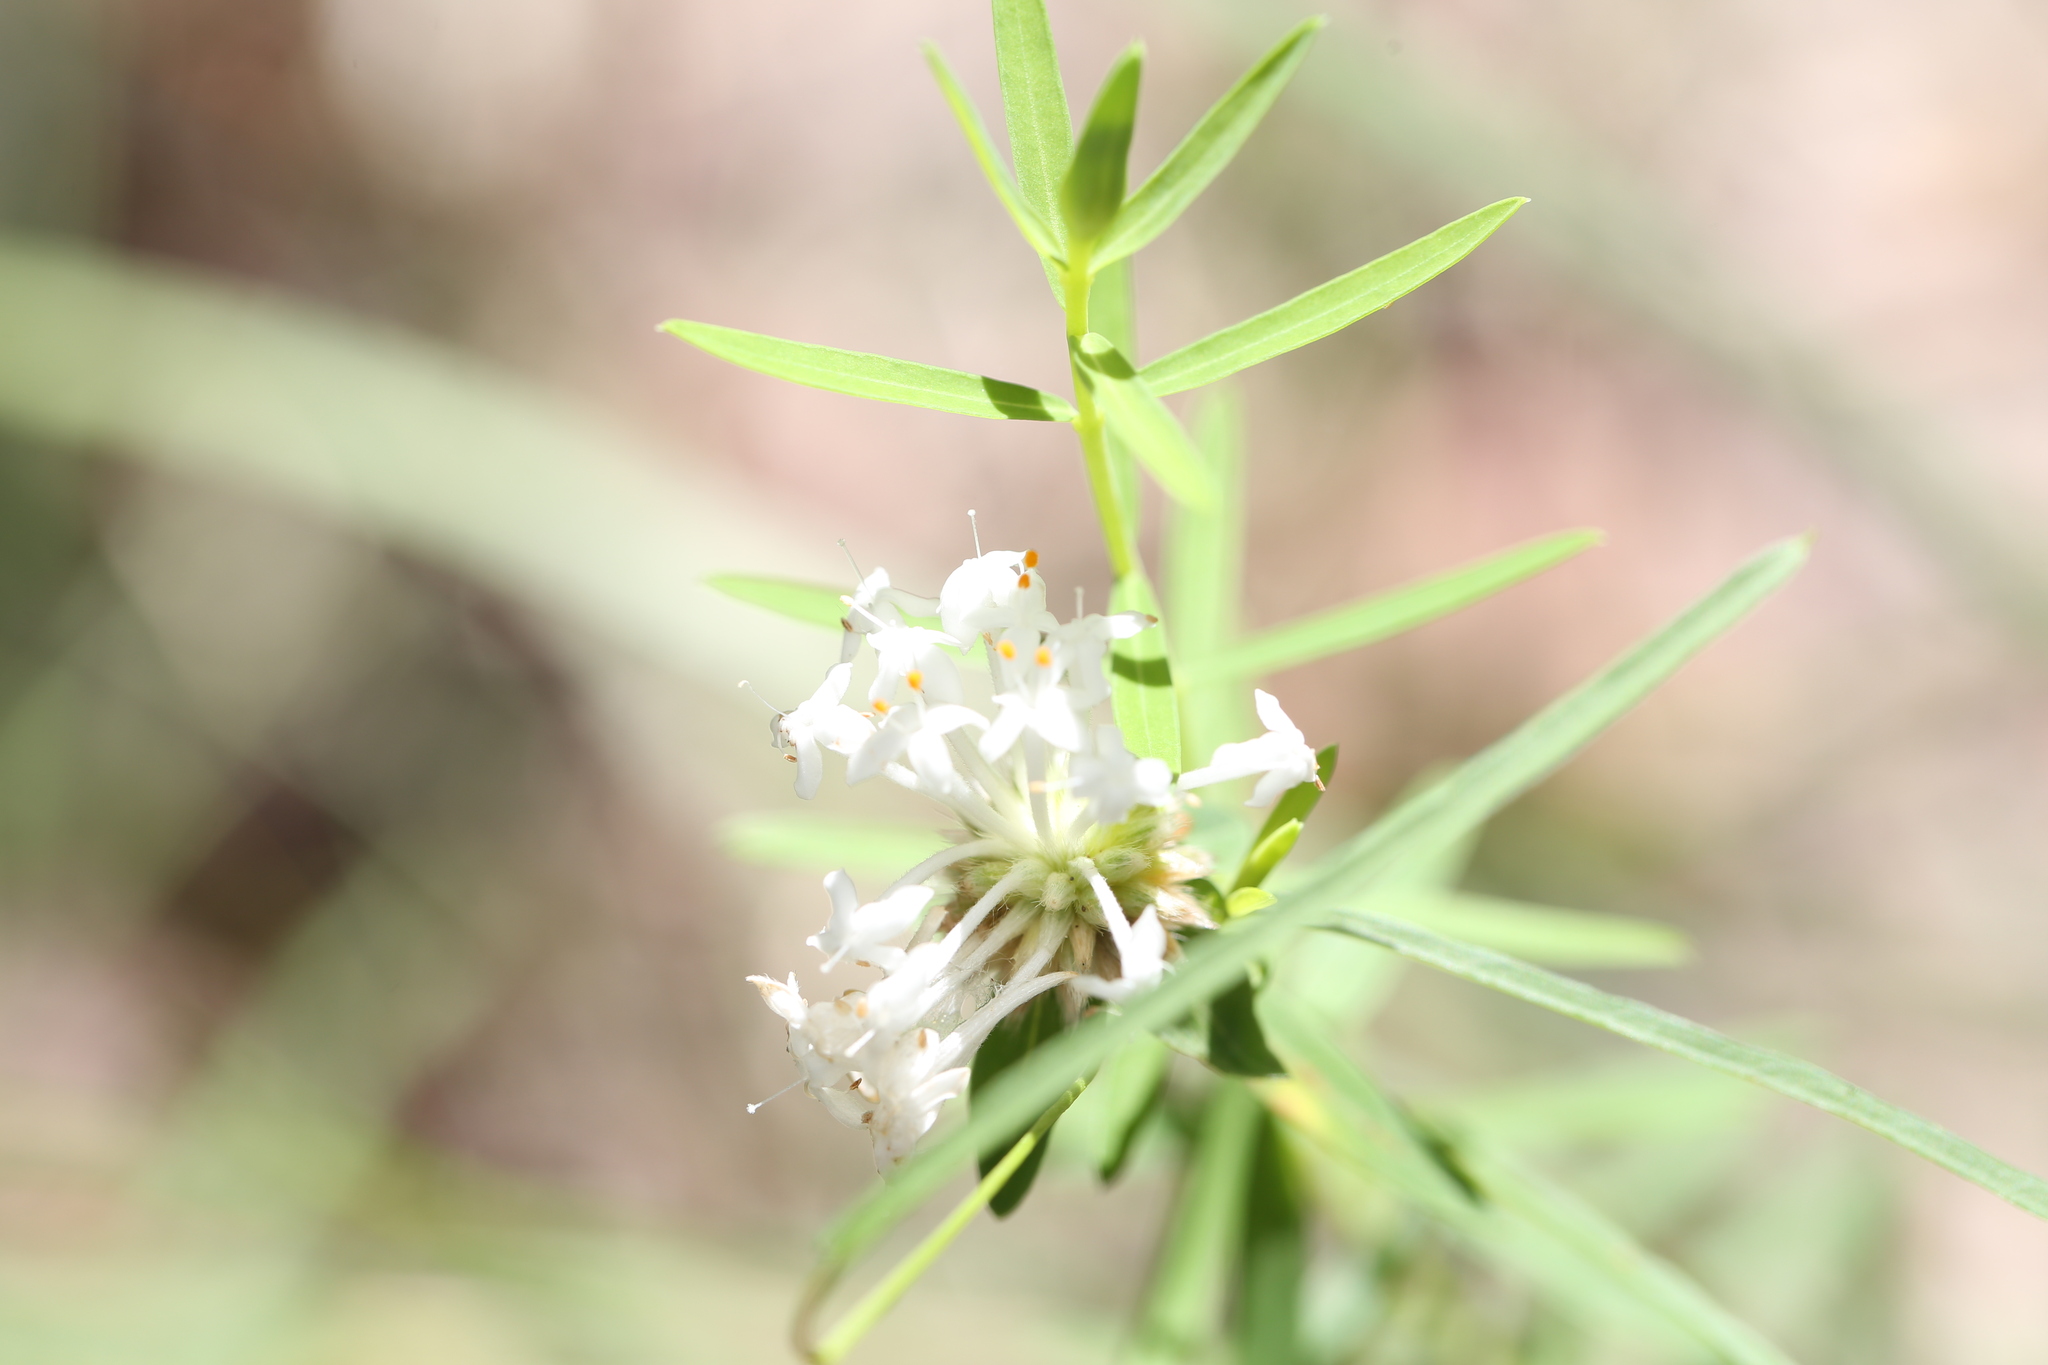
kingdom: Plantae
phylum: Tracheophyta
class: Magnoliopsida
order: Malvales
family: Thymelaeaceae
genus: Pimelea
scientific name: Pimelea linifolia
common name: Queen-of-the-bush
